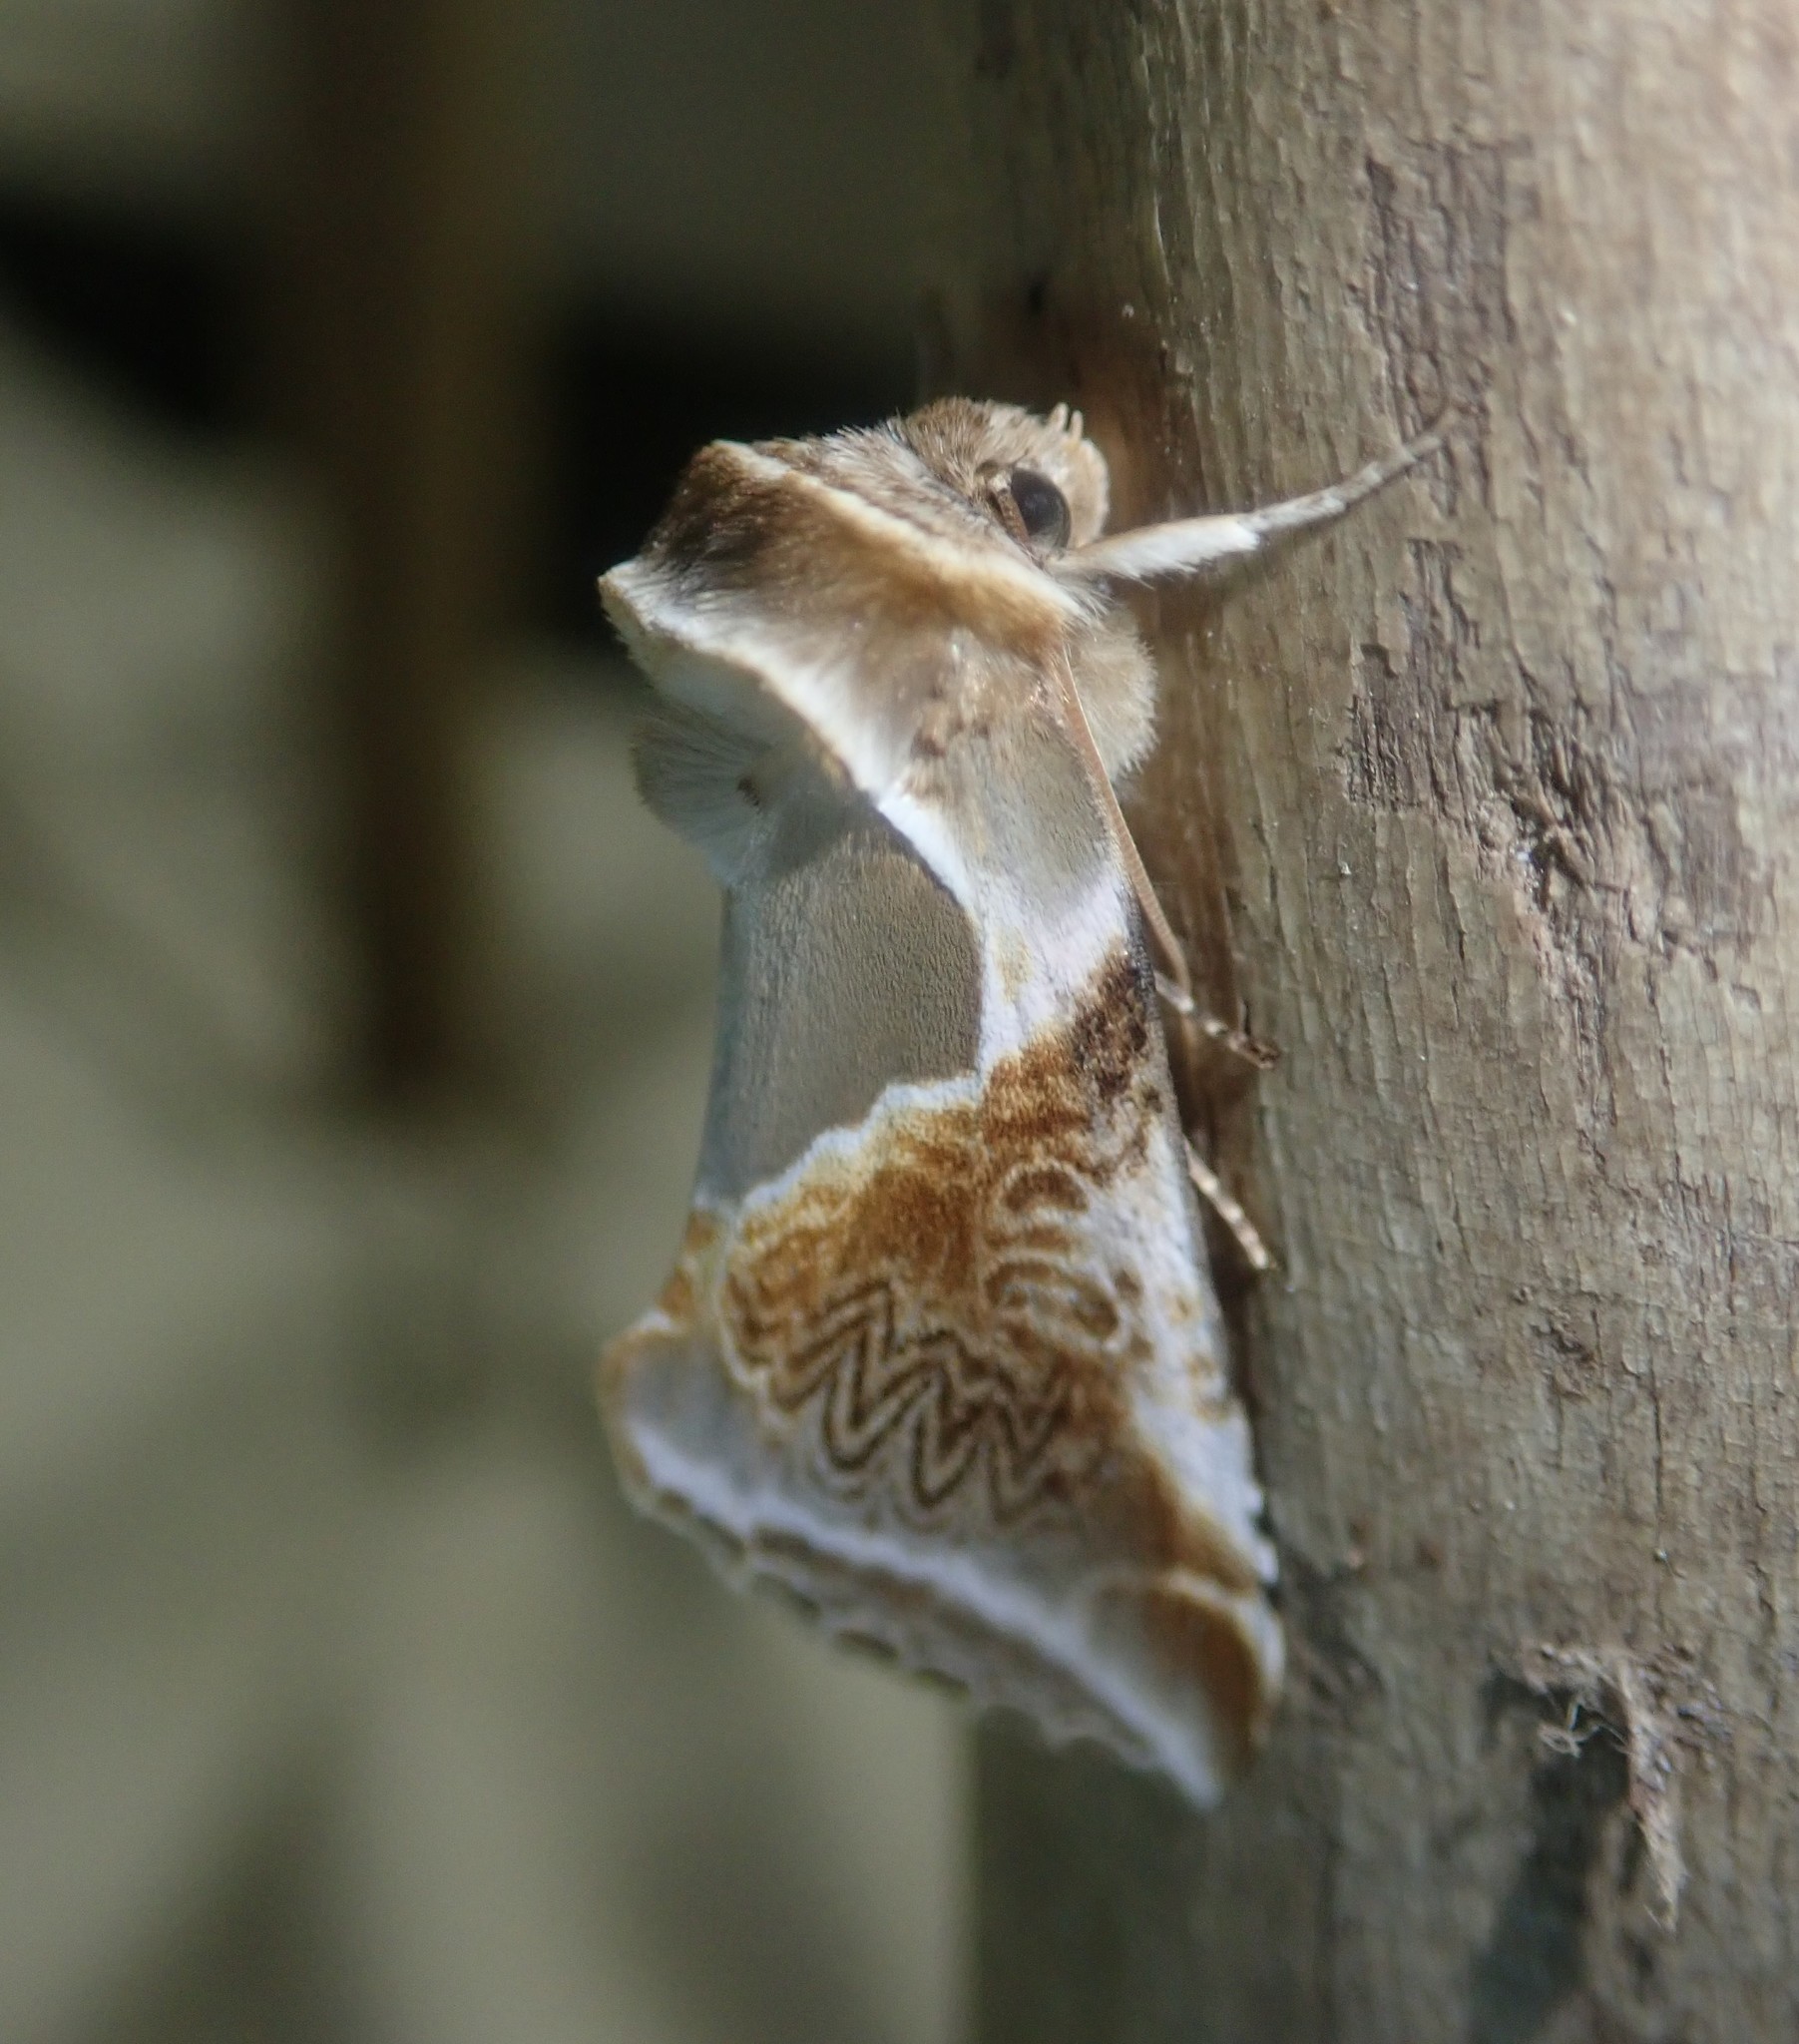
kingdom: Animalia
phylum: Arthropoda
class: Insecta
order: Lepidoptera
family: Drepanidae
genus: Habrosyne
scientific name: Habrosyne pyritoides
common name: Buff arches
